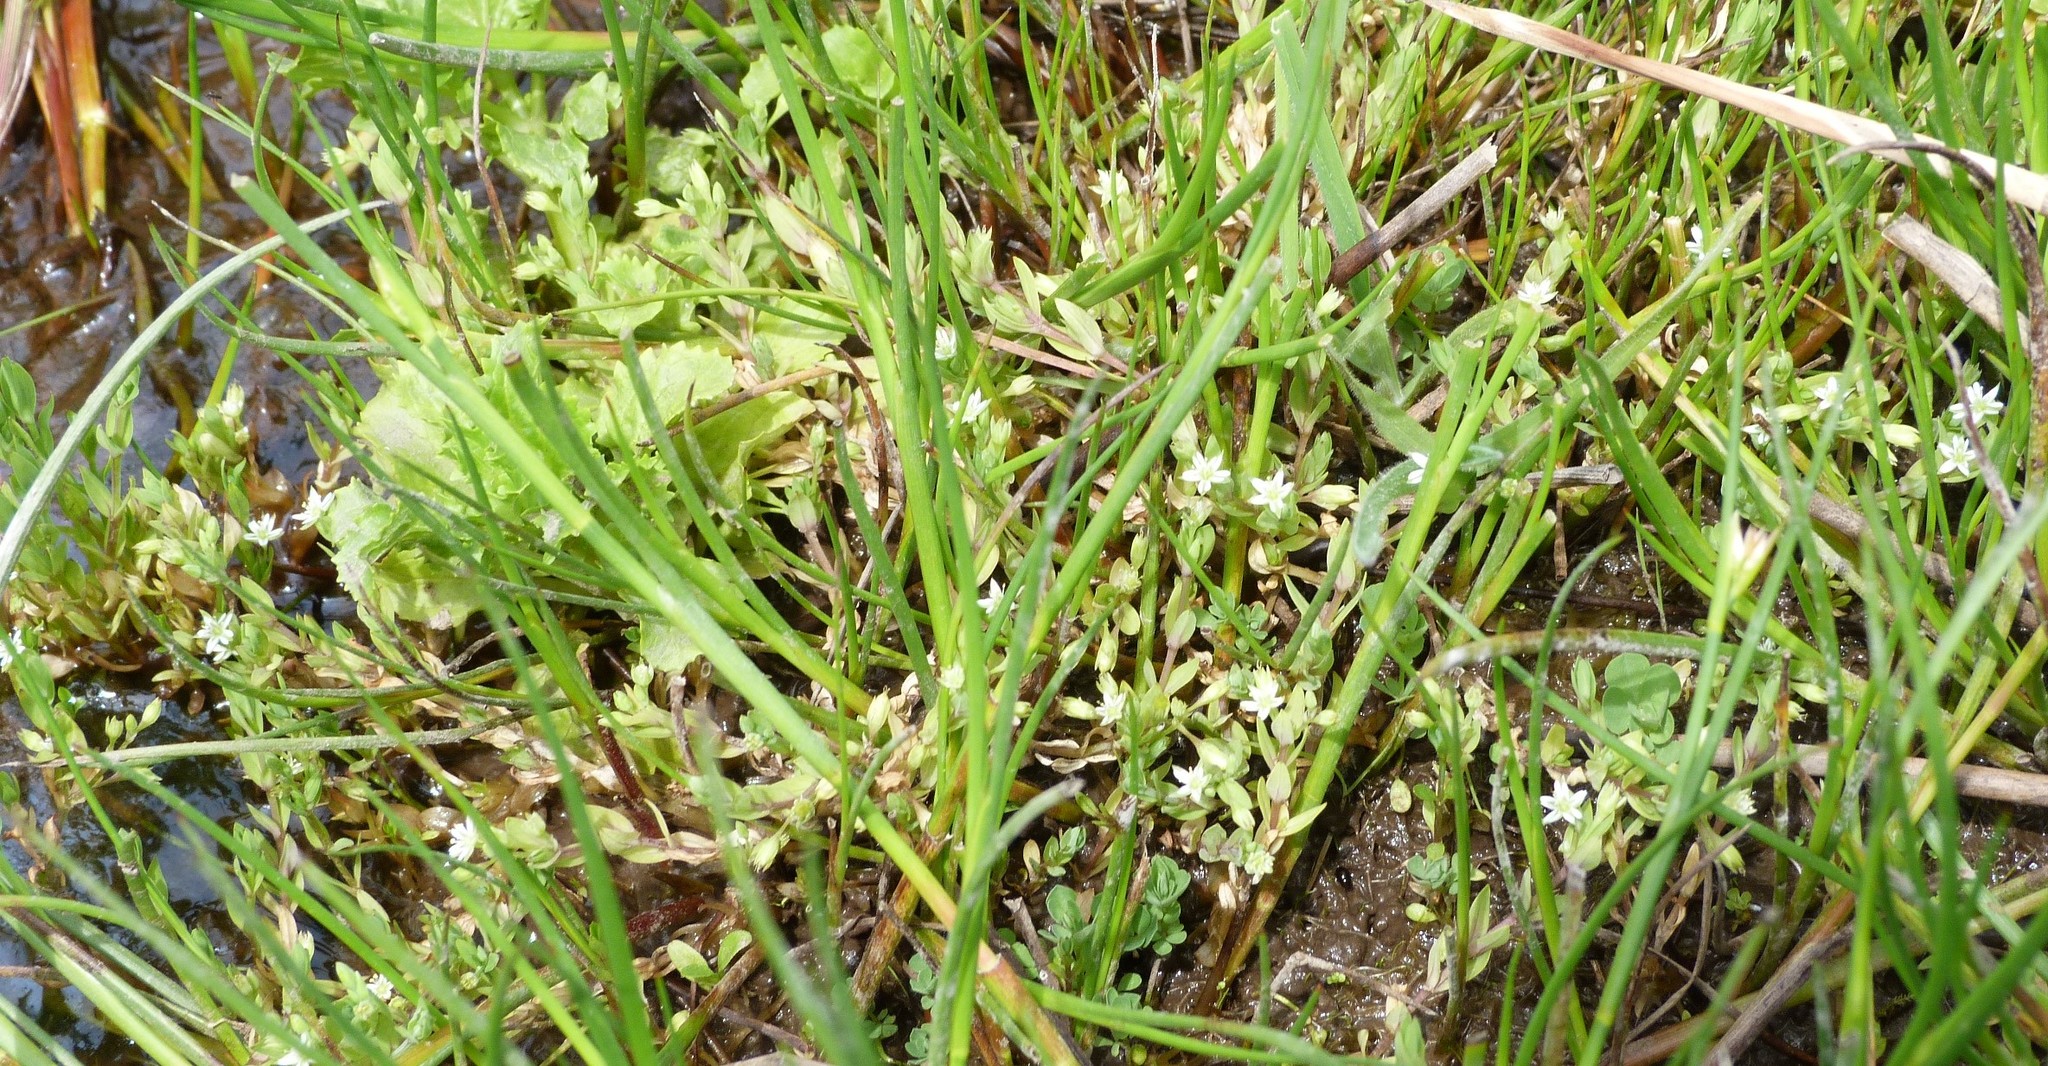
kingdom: Plantae
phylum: Tracheophyta
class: Magnoliopsida
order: Caryophyllales
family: Montiaceae
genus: Montia
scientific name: Montia fontana
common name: Blinks
